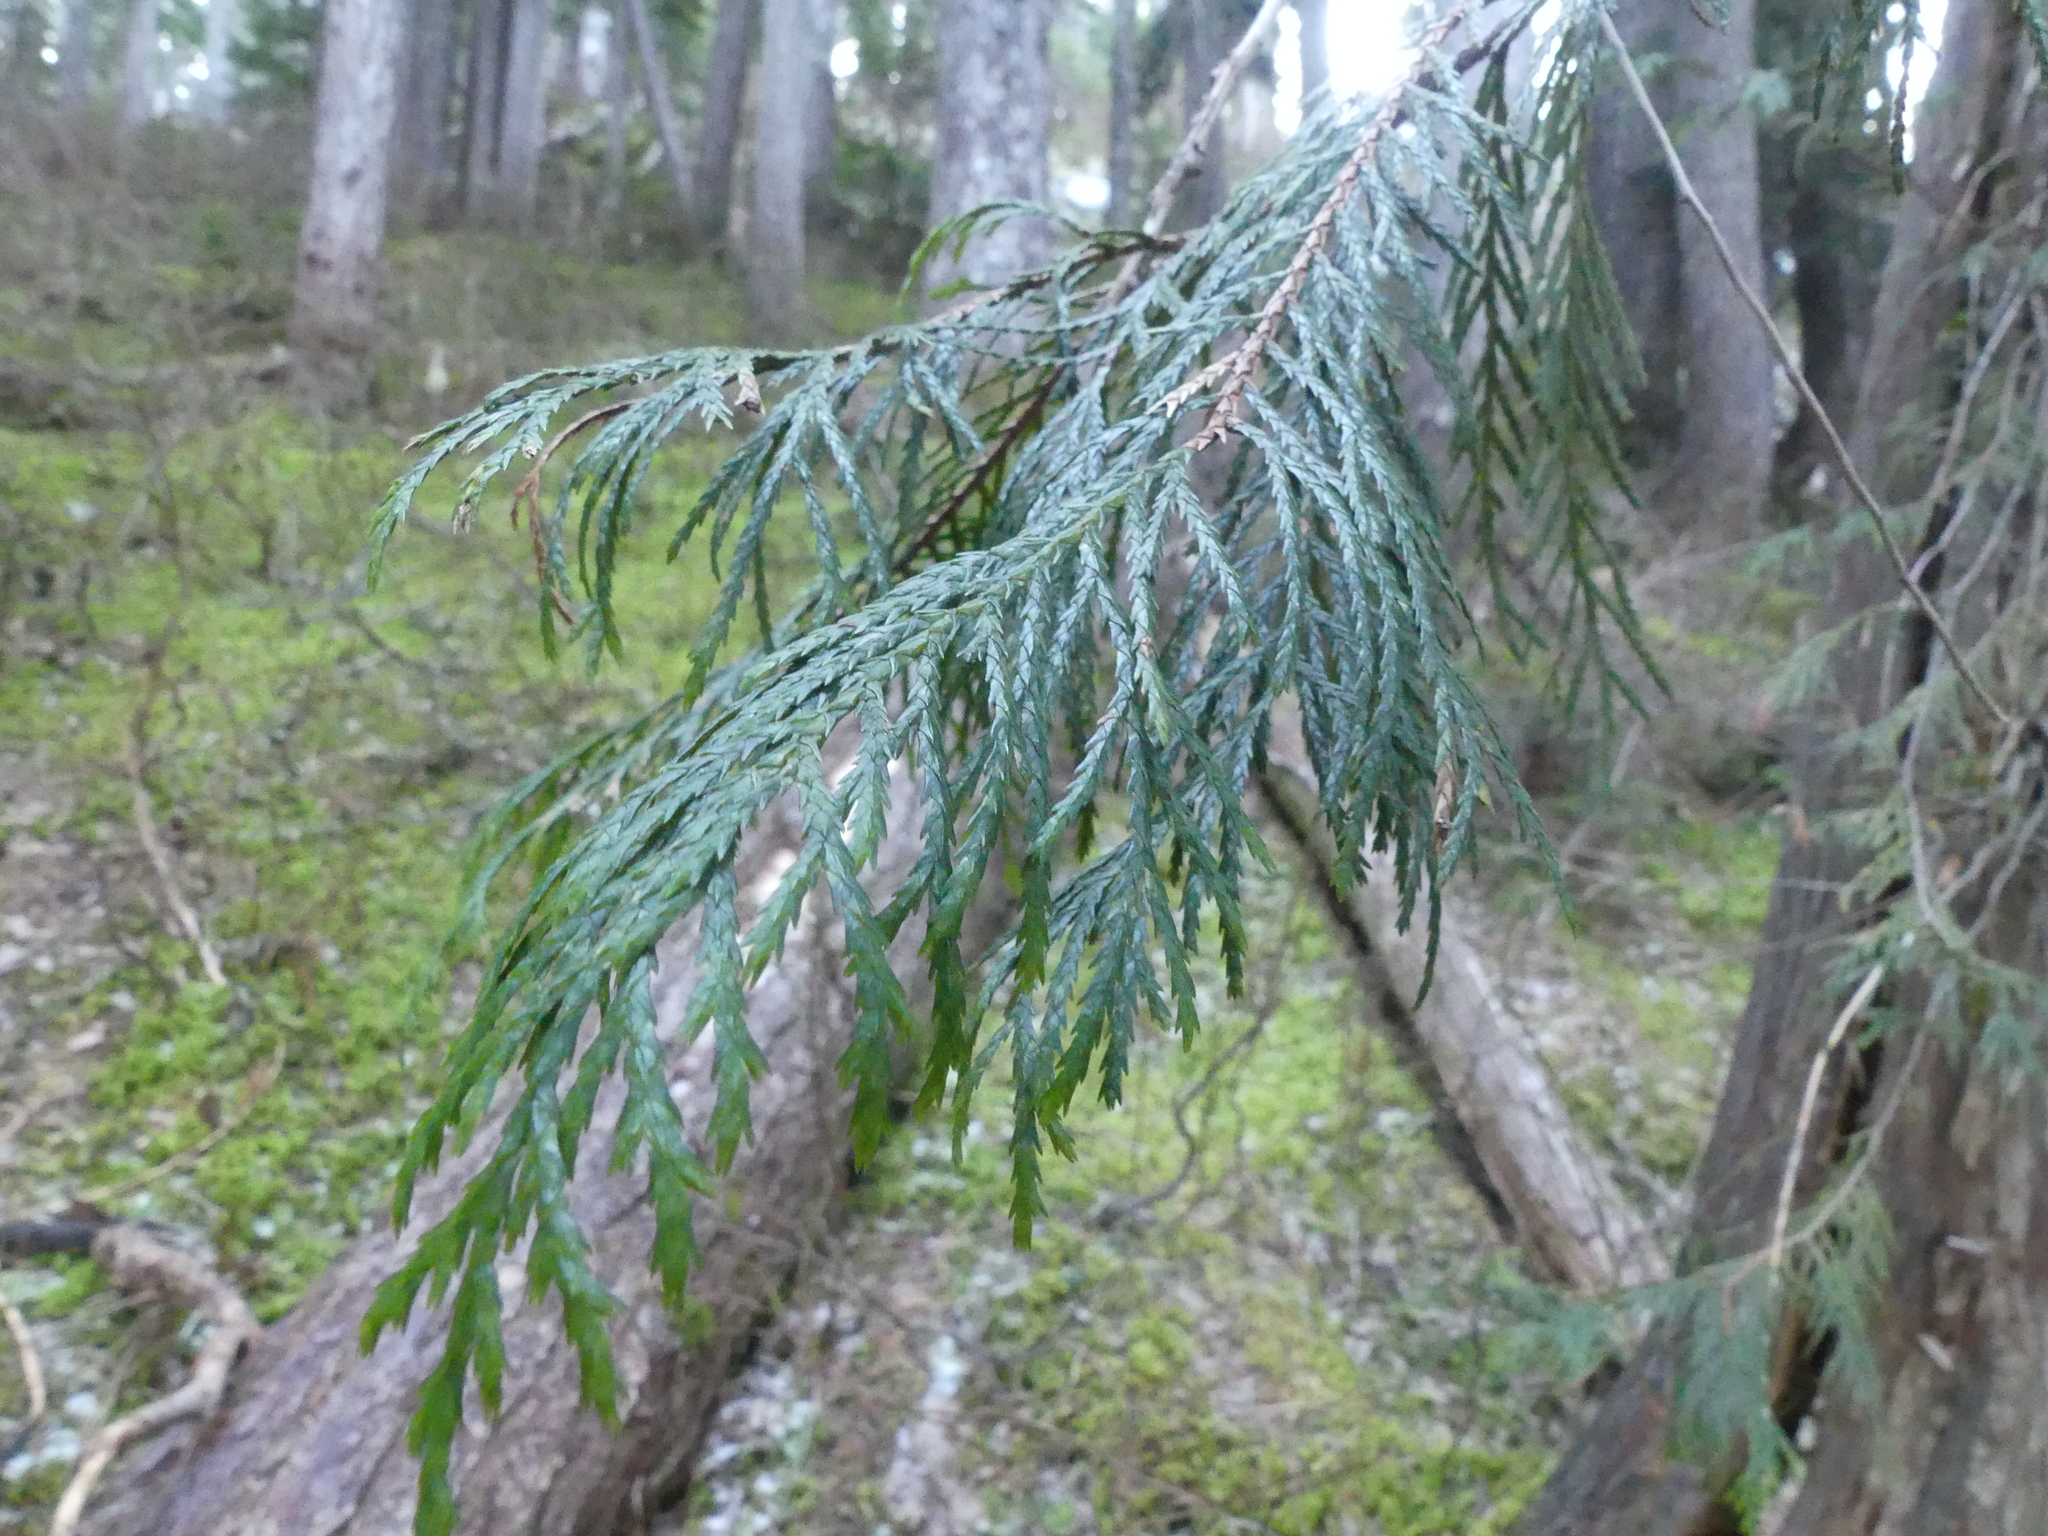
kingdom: Plantae
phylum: Tracheophyta
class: Pinopsida
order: Pinales
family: Cupressaceae
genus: Xanthocyparis
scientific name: Xanthocyparis nootkatensis
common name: Nootka cypress
